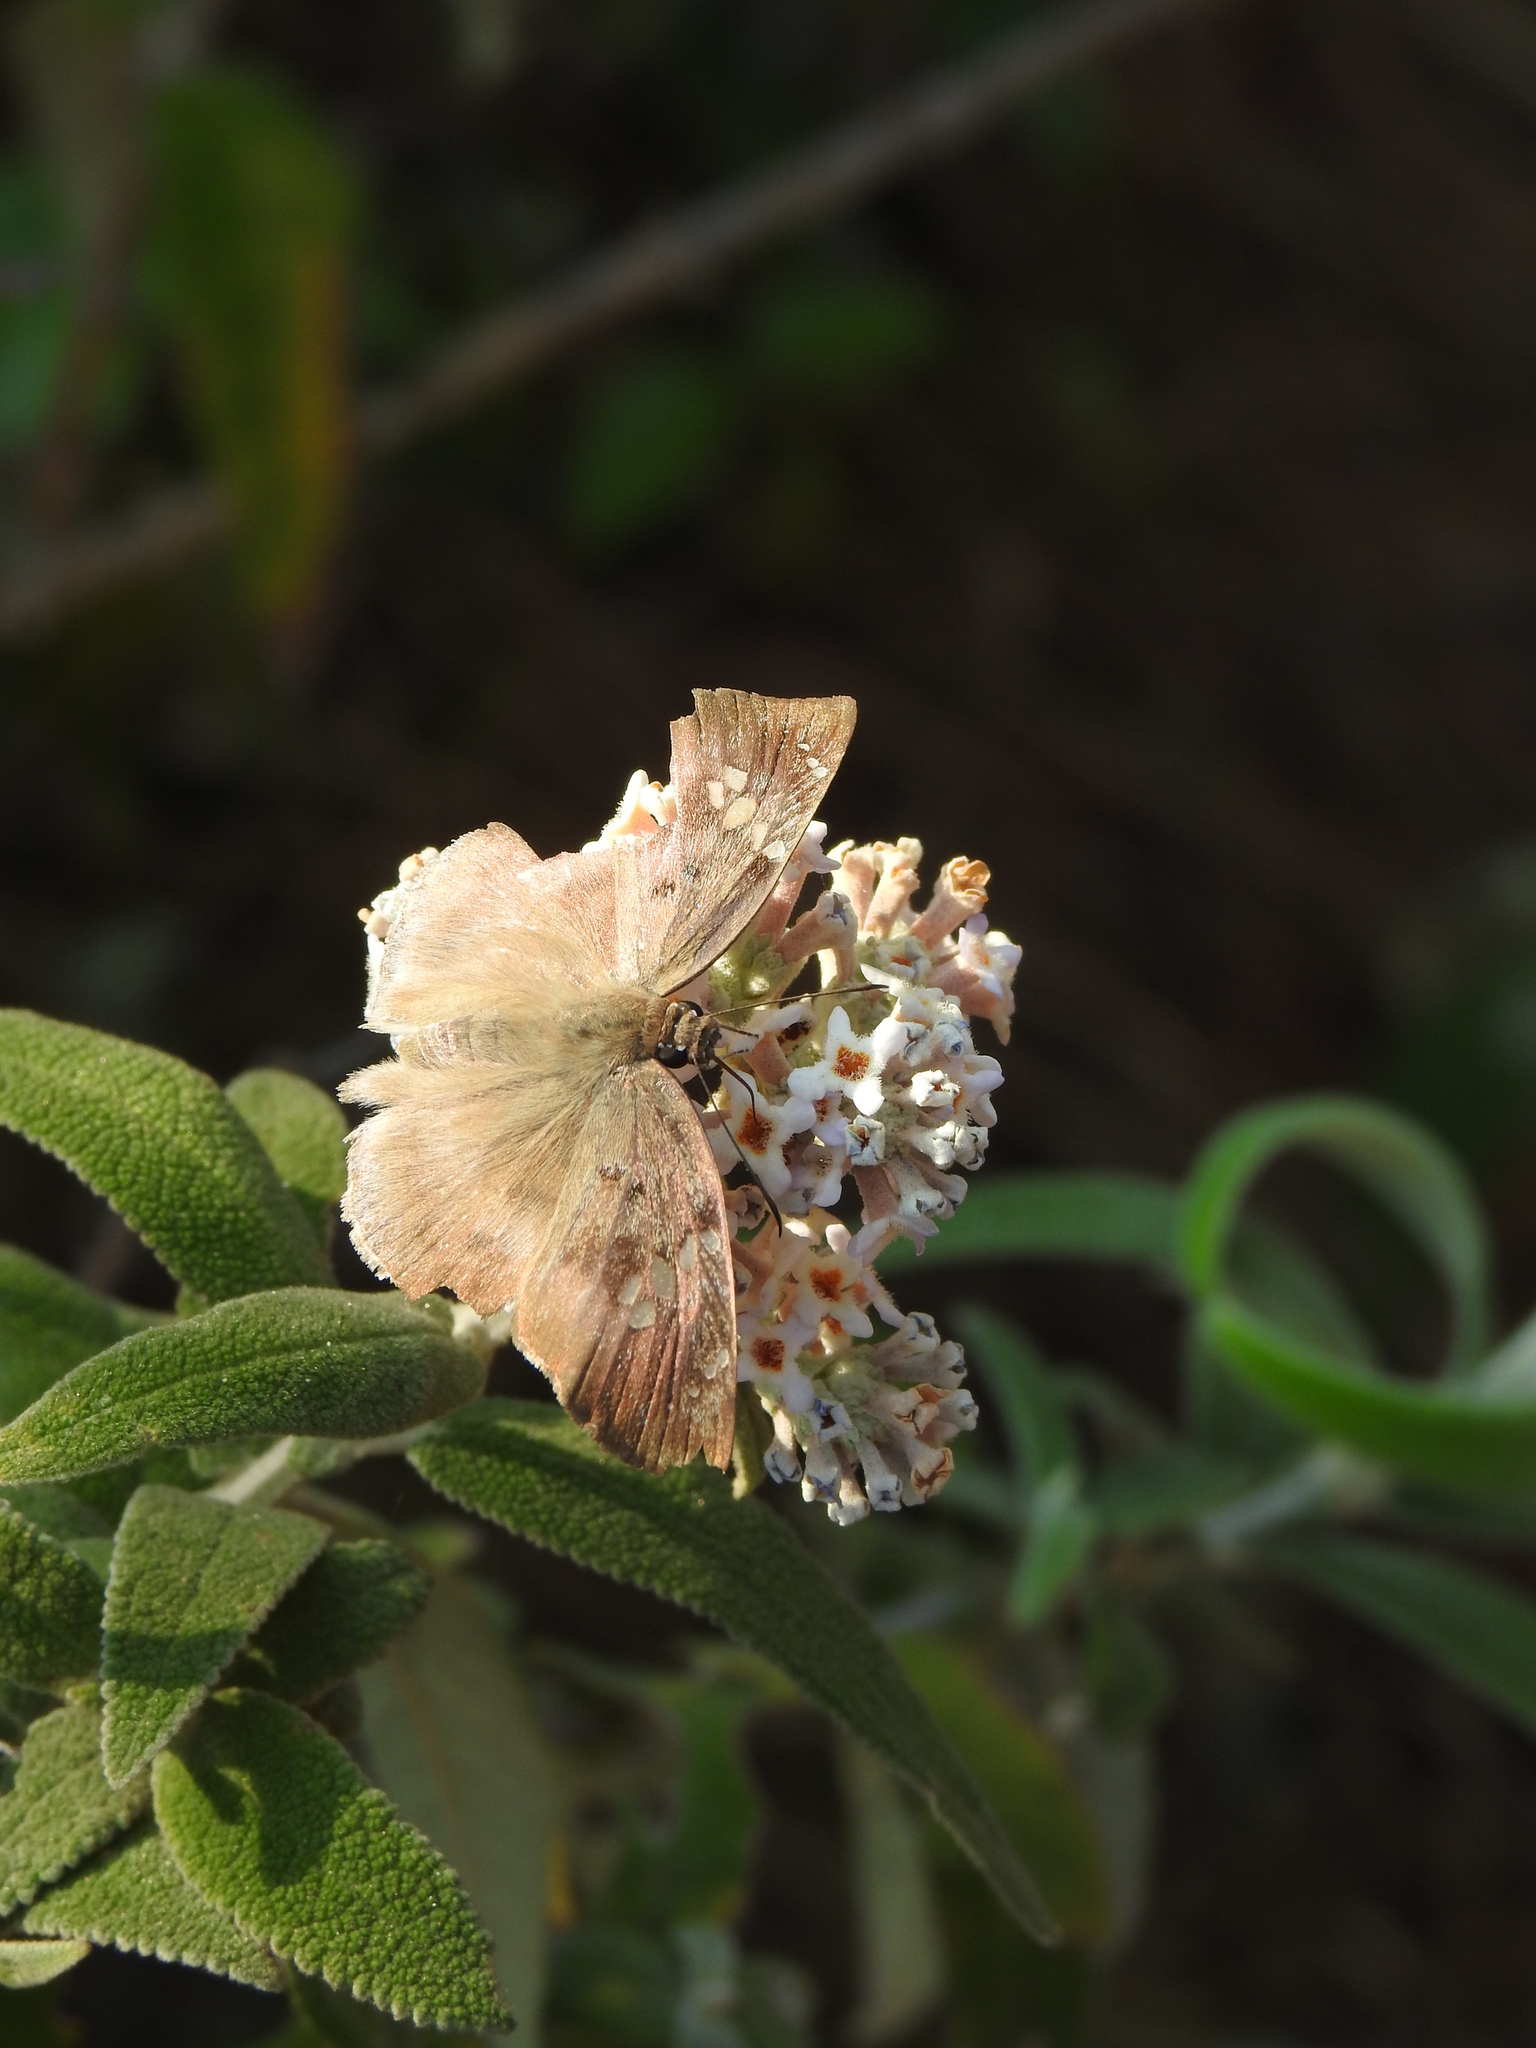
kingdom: Animalia
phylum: Arthropoda
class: Insecta
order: Lepidoptera
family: Hesperiidae
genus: Tagiades
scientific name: Tagiades flesus
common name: Clouded flat
